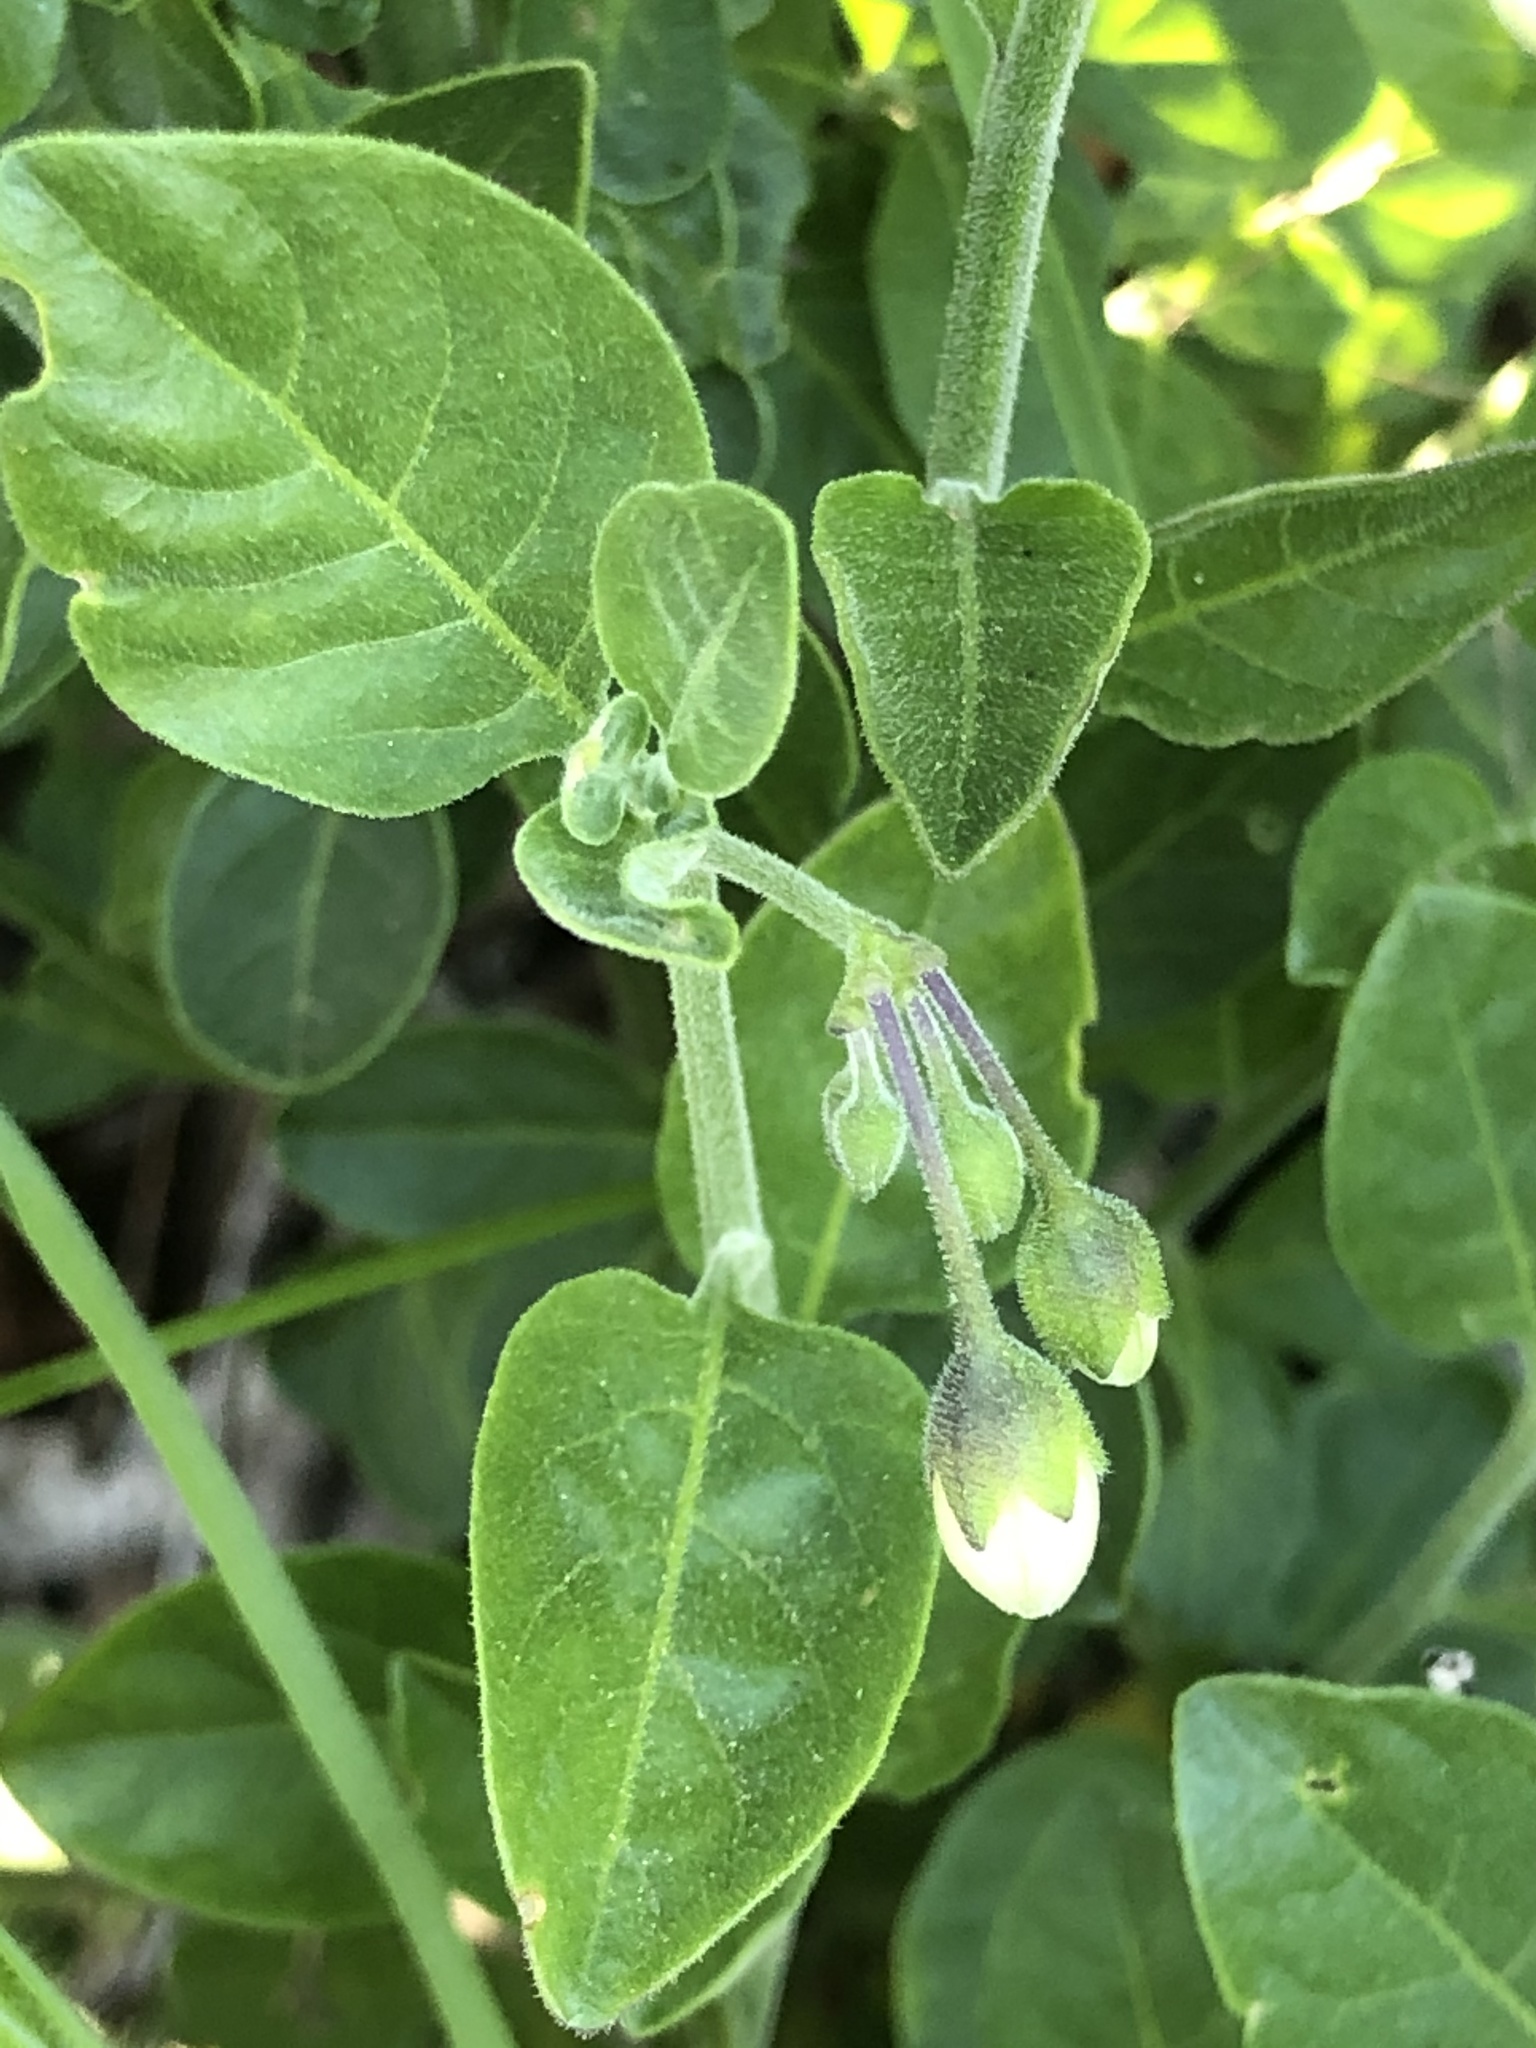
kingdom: Plantae
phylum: Tracheophyta
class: Magnoliopsida
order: Solanales
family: Solanaceae
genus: Solanum
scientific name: Solanum umbelliferum
